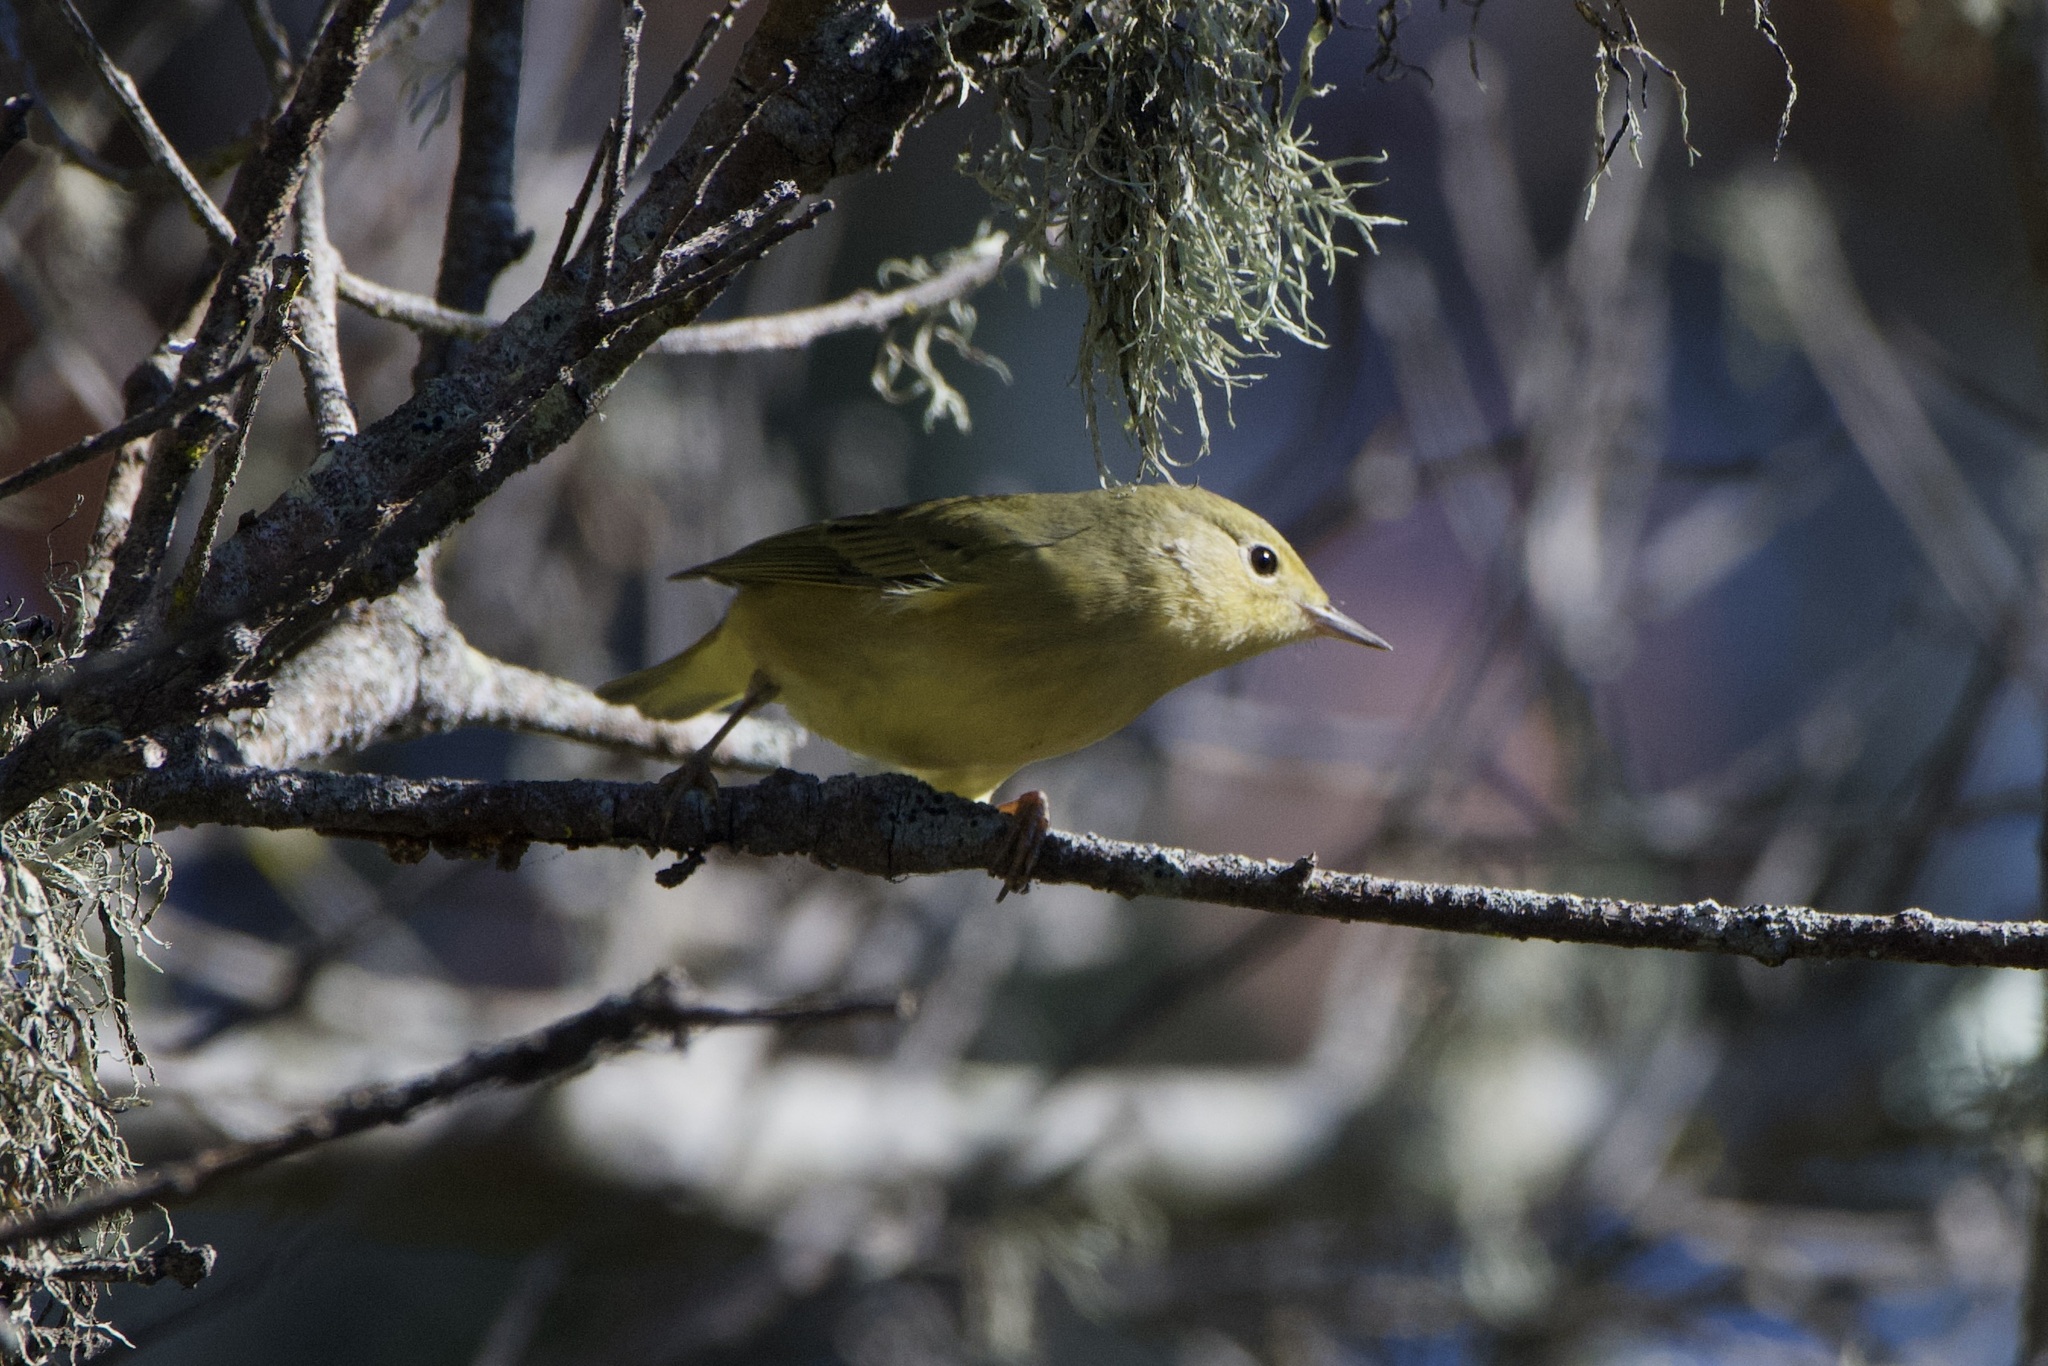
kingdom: Animalia
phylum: Chordata
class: Aves
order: Passeriformes
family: Parulidae
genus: Setophaga
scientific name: Setophaga petechia
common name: Yellow warbler
